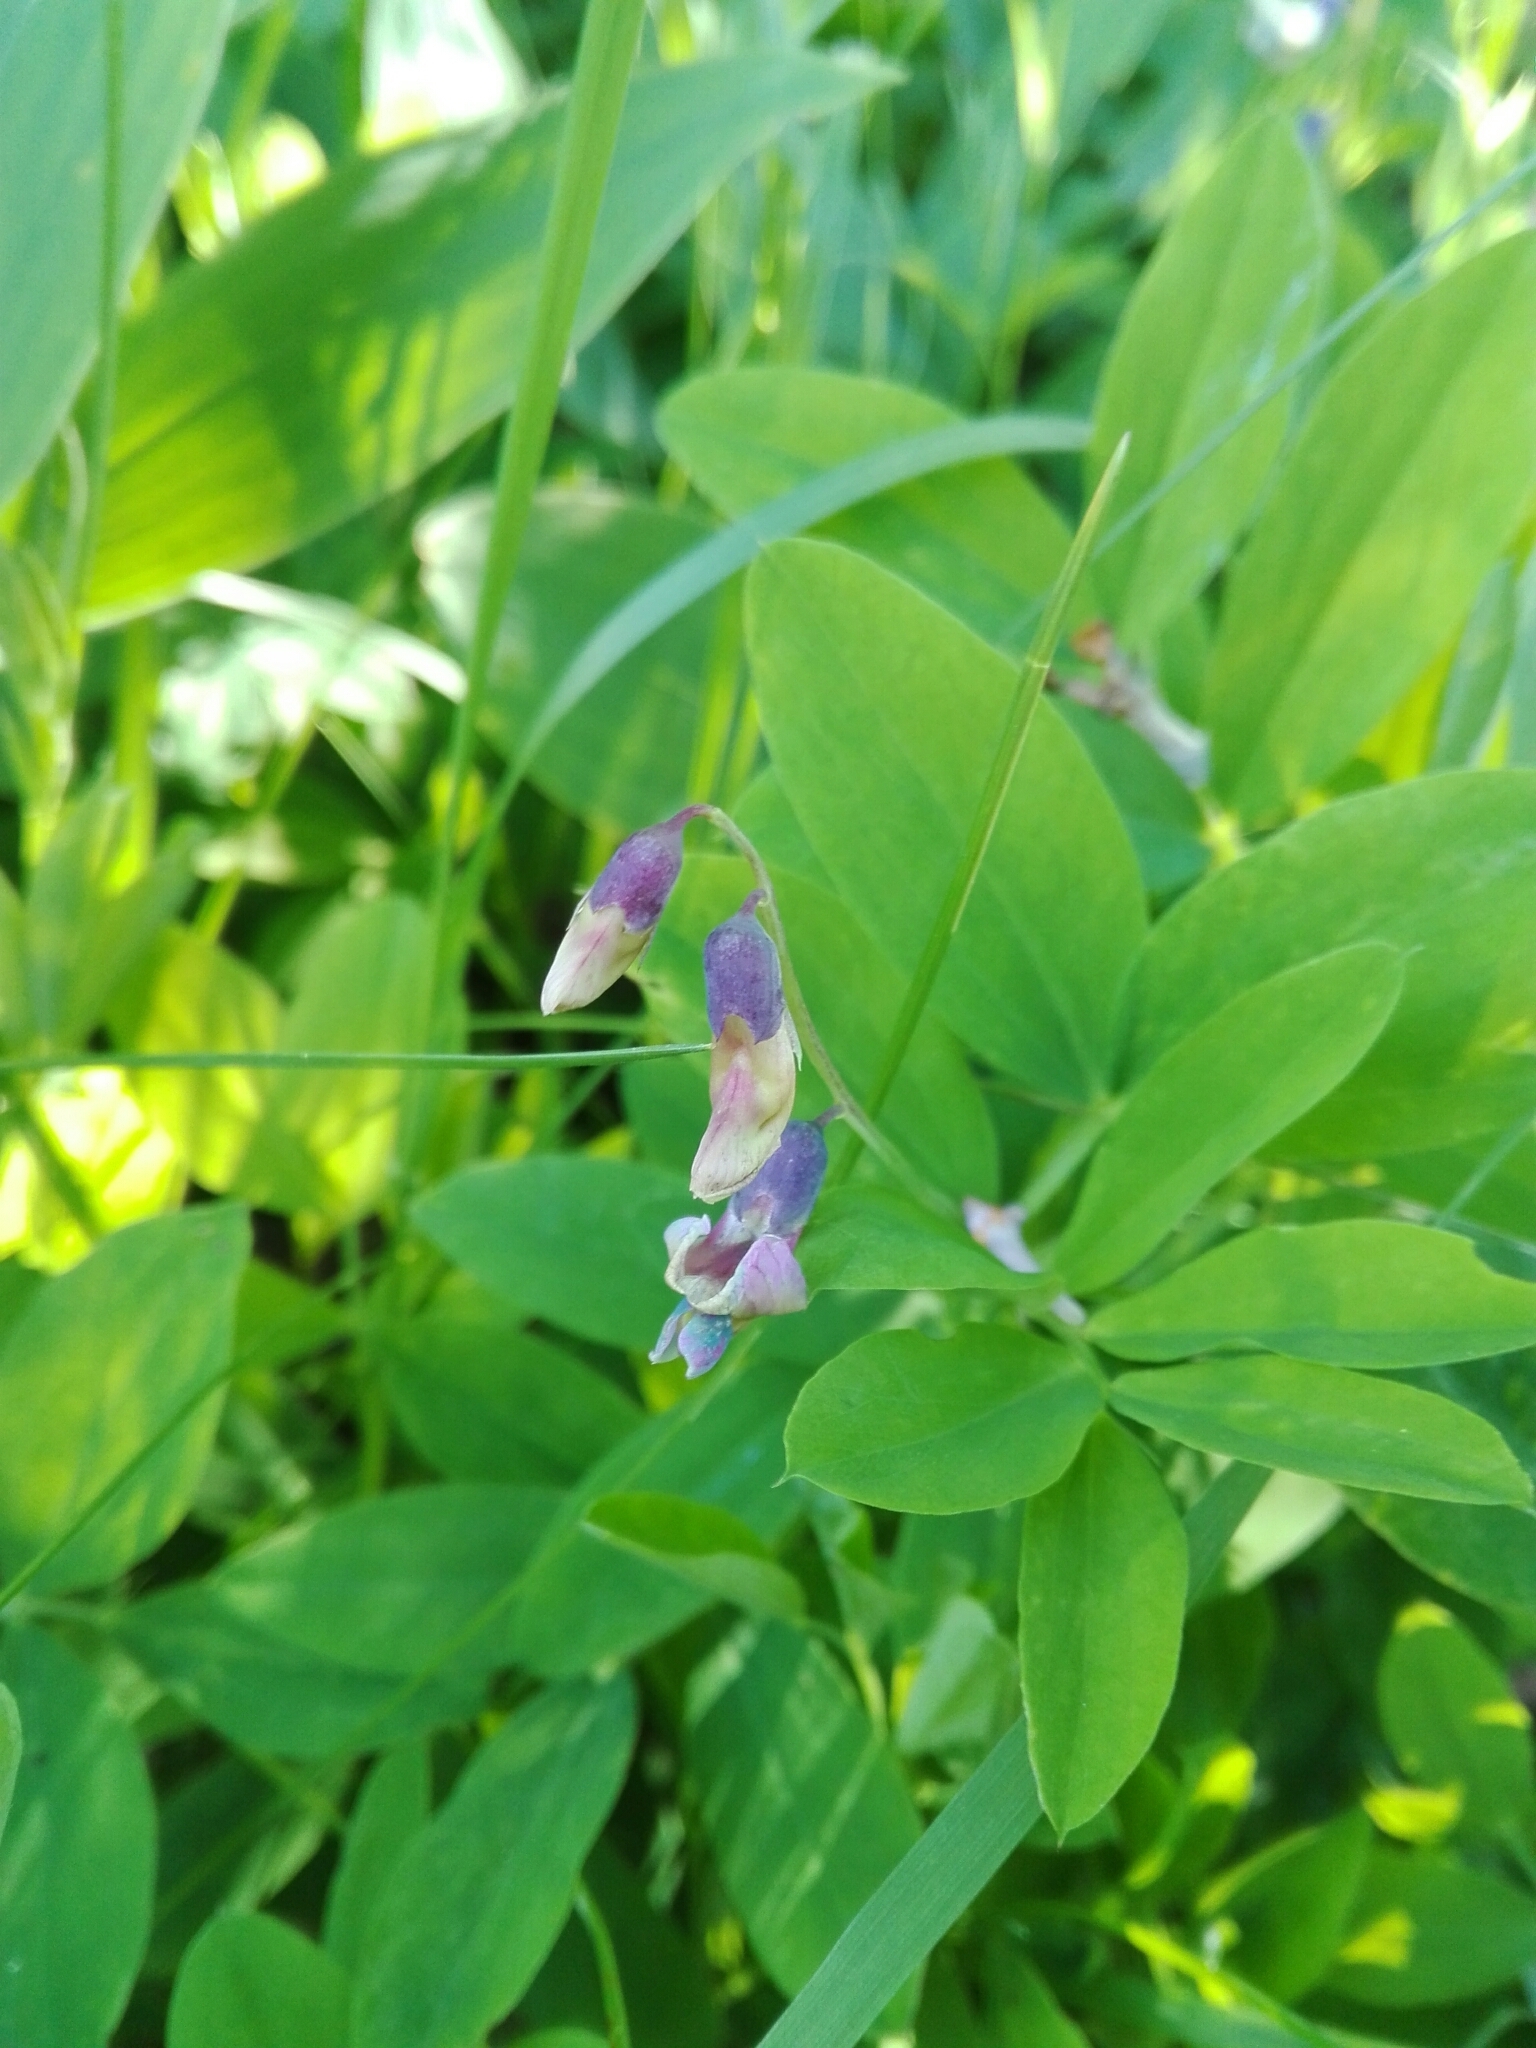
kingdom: Plantae
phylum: Tracheophyta
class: Magnoliopsida
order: Fabales
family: Fabaceae
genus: Lathyrus
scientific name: Lathyrus linifolius
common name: Bitter-vetch
